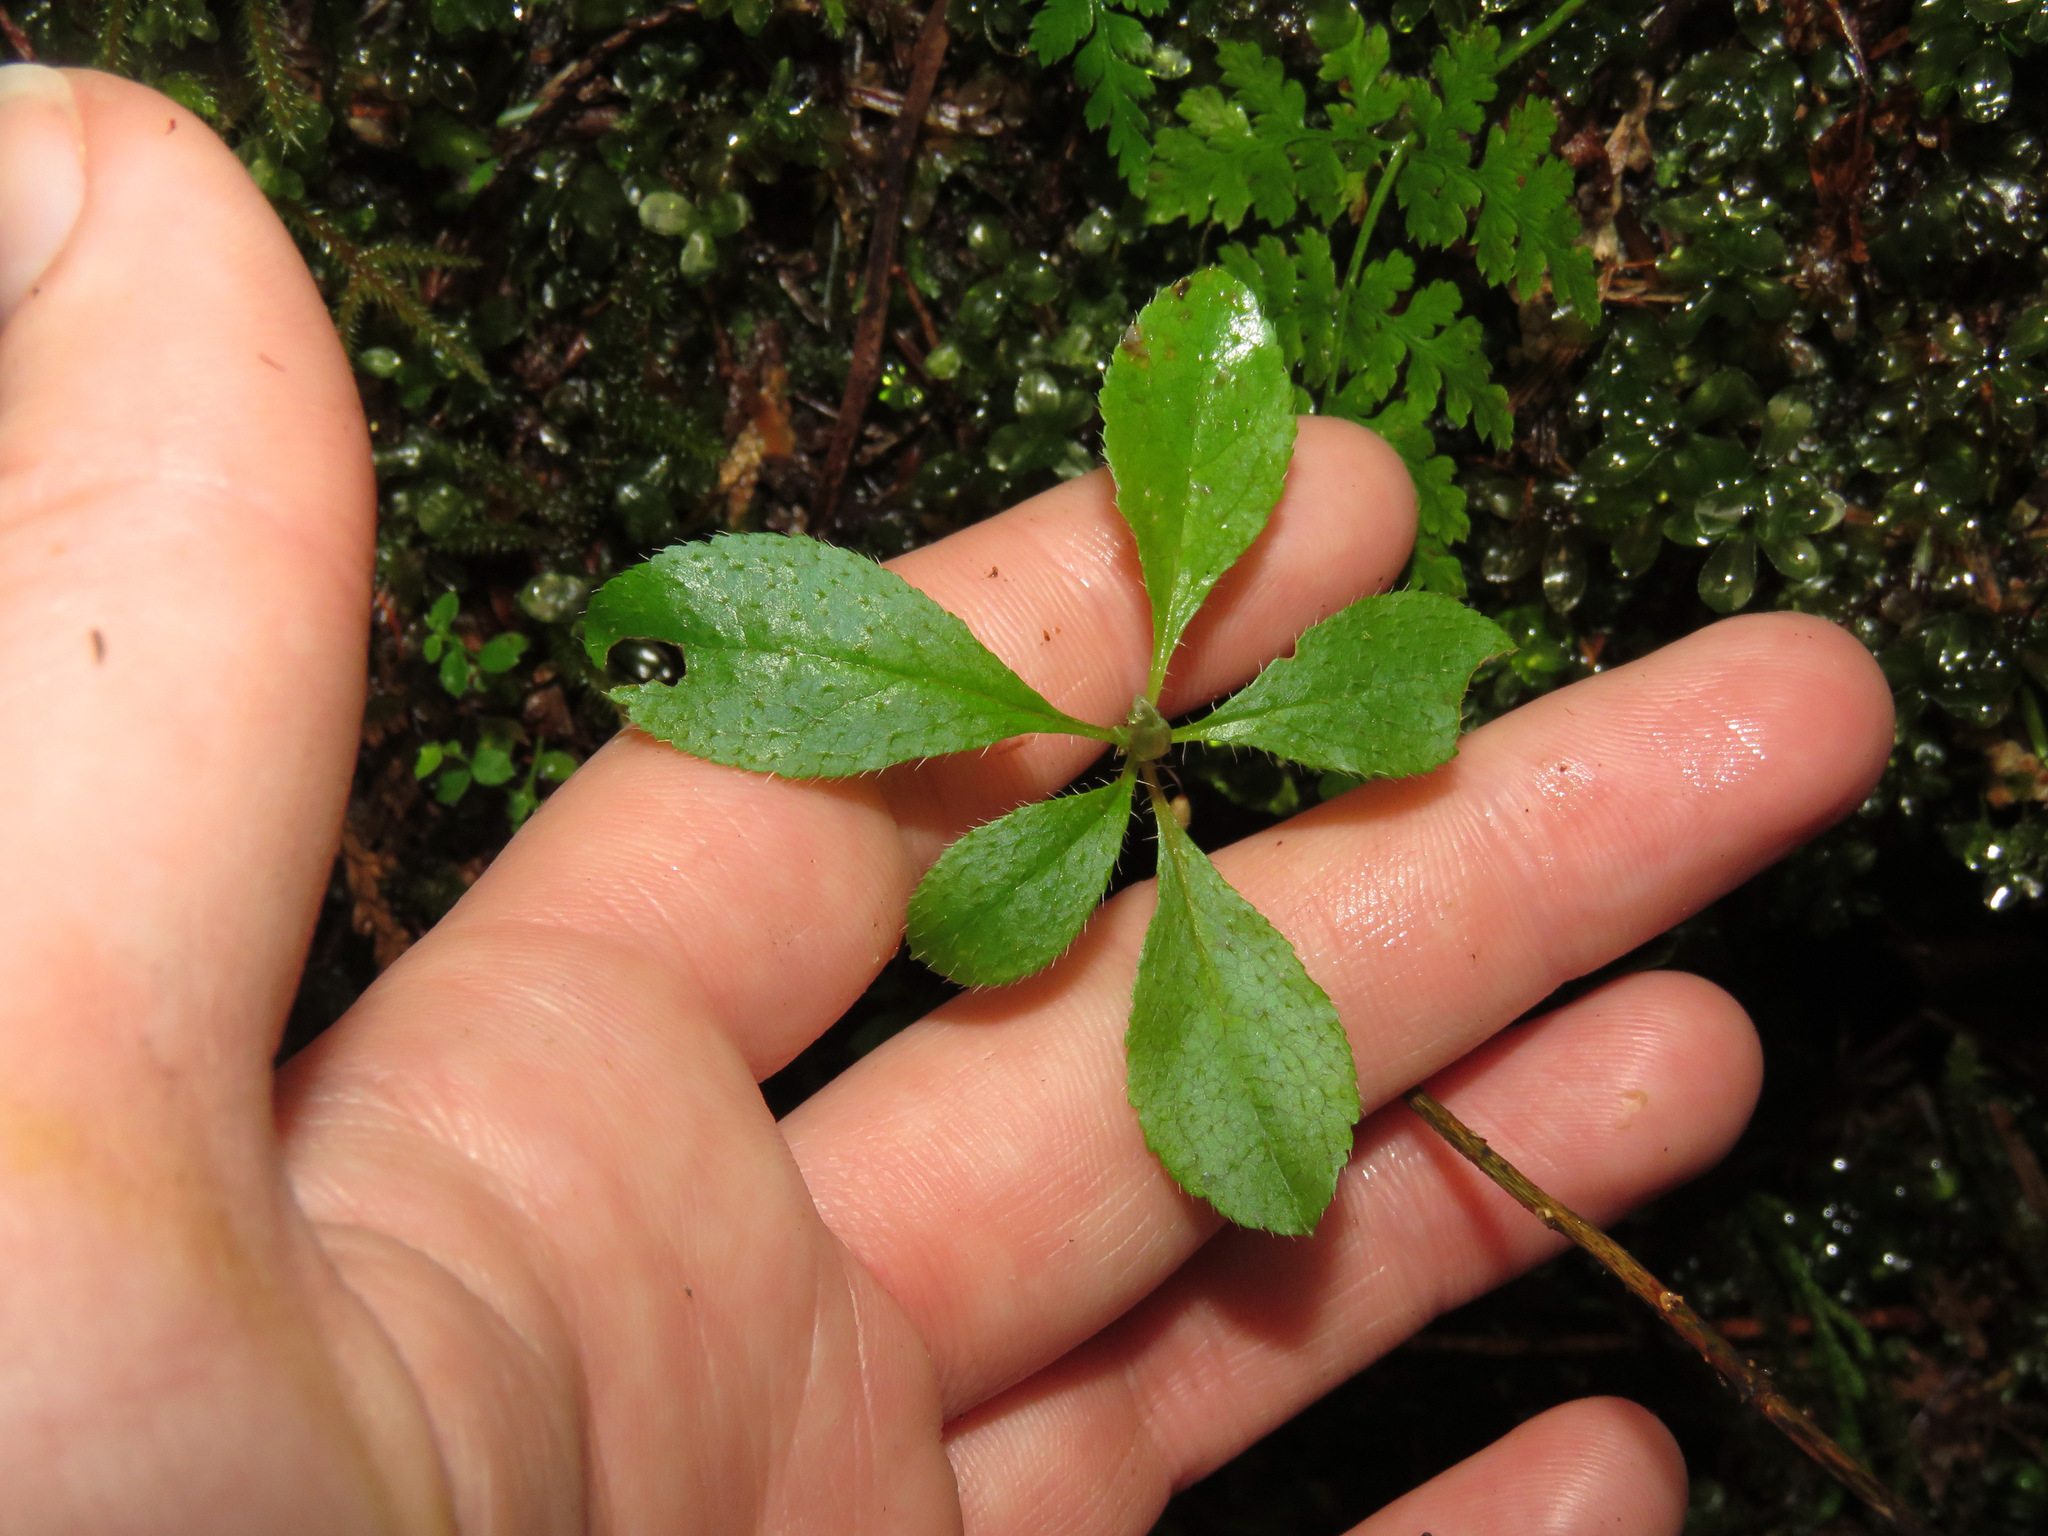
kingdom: Plantae
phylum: Tracheophyta
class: Magnoliopsida
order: Dipsacales
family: Caprifoliaceae
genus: Linnaea
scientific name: Linnaea borealis
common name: Twinflower
